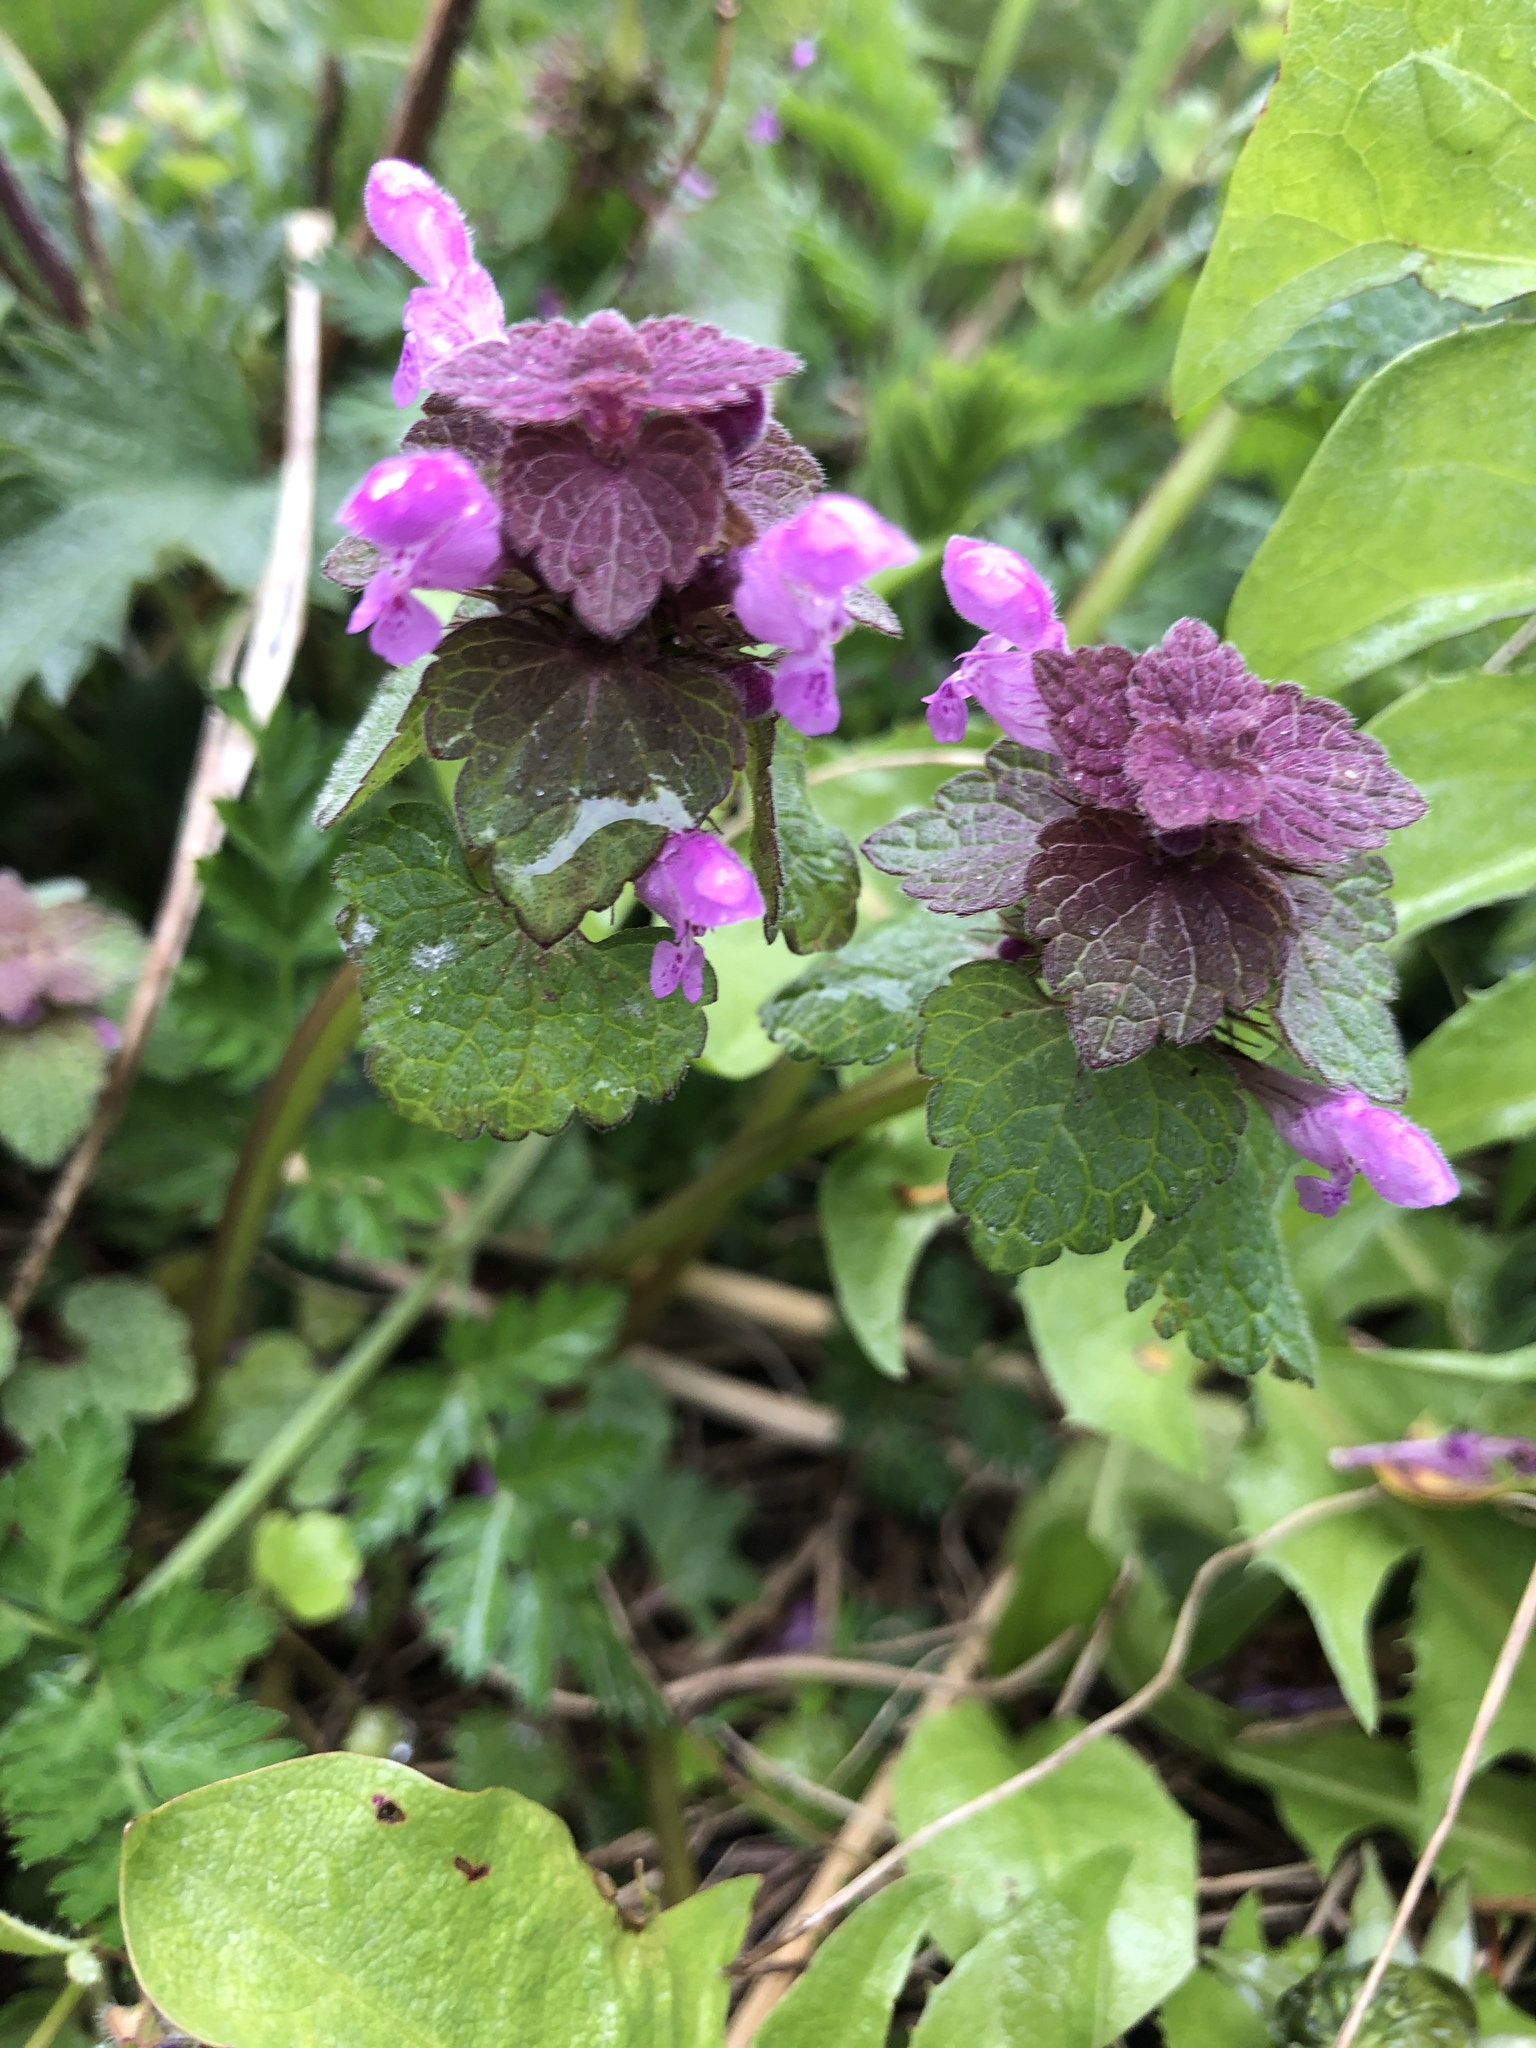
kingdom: Plantae
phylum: Tracheophyta
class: Magnoliopsida
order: Lamiales
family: Lamiaceae
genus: Lamium
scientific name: Lamium purpureum
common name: Red dead-nettle
